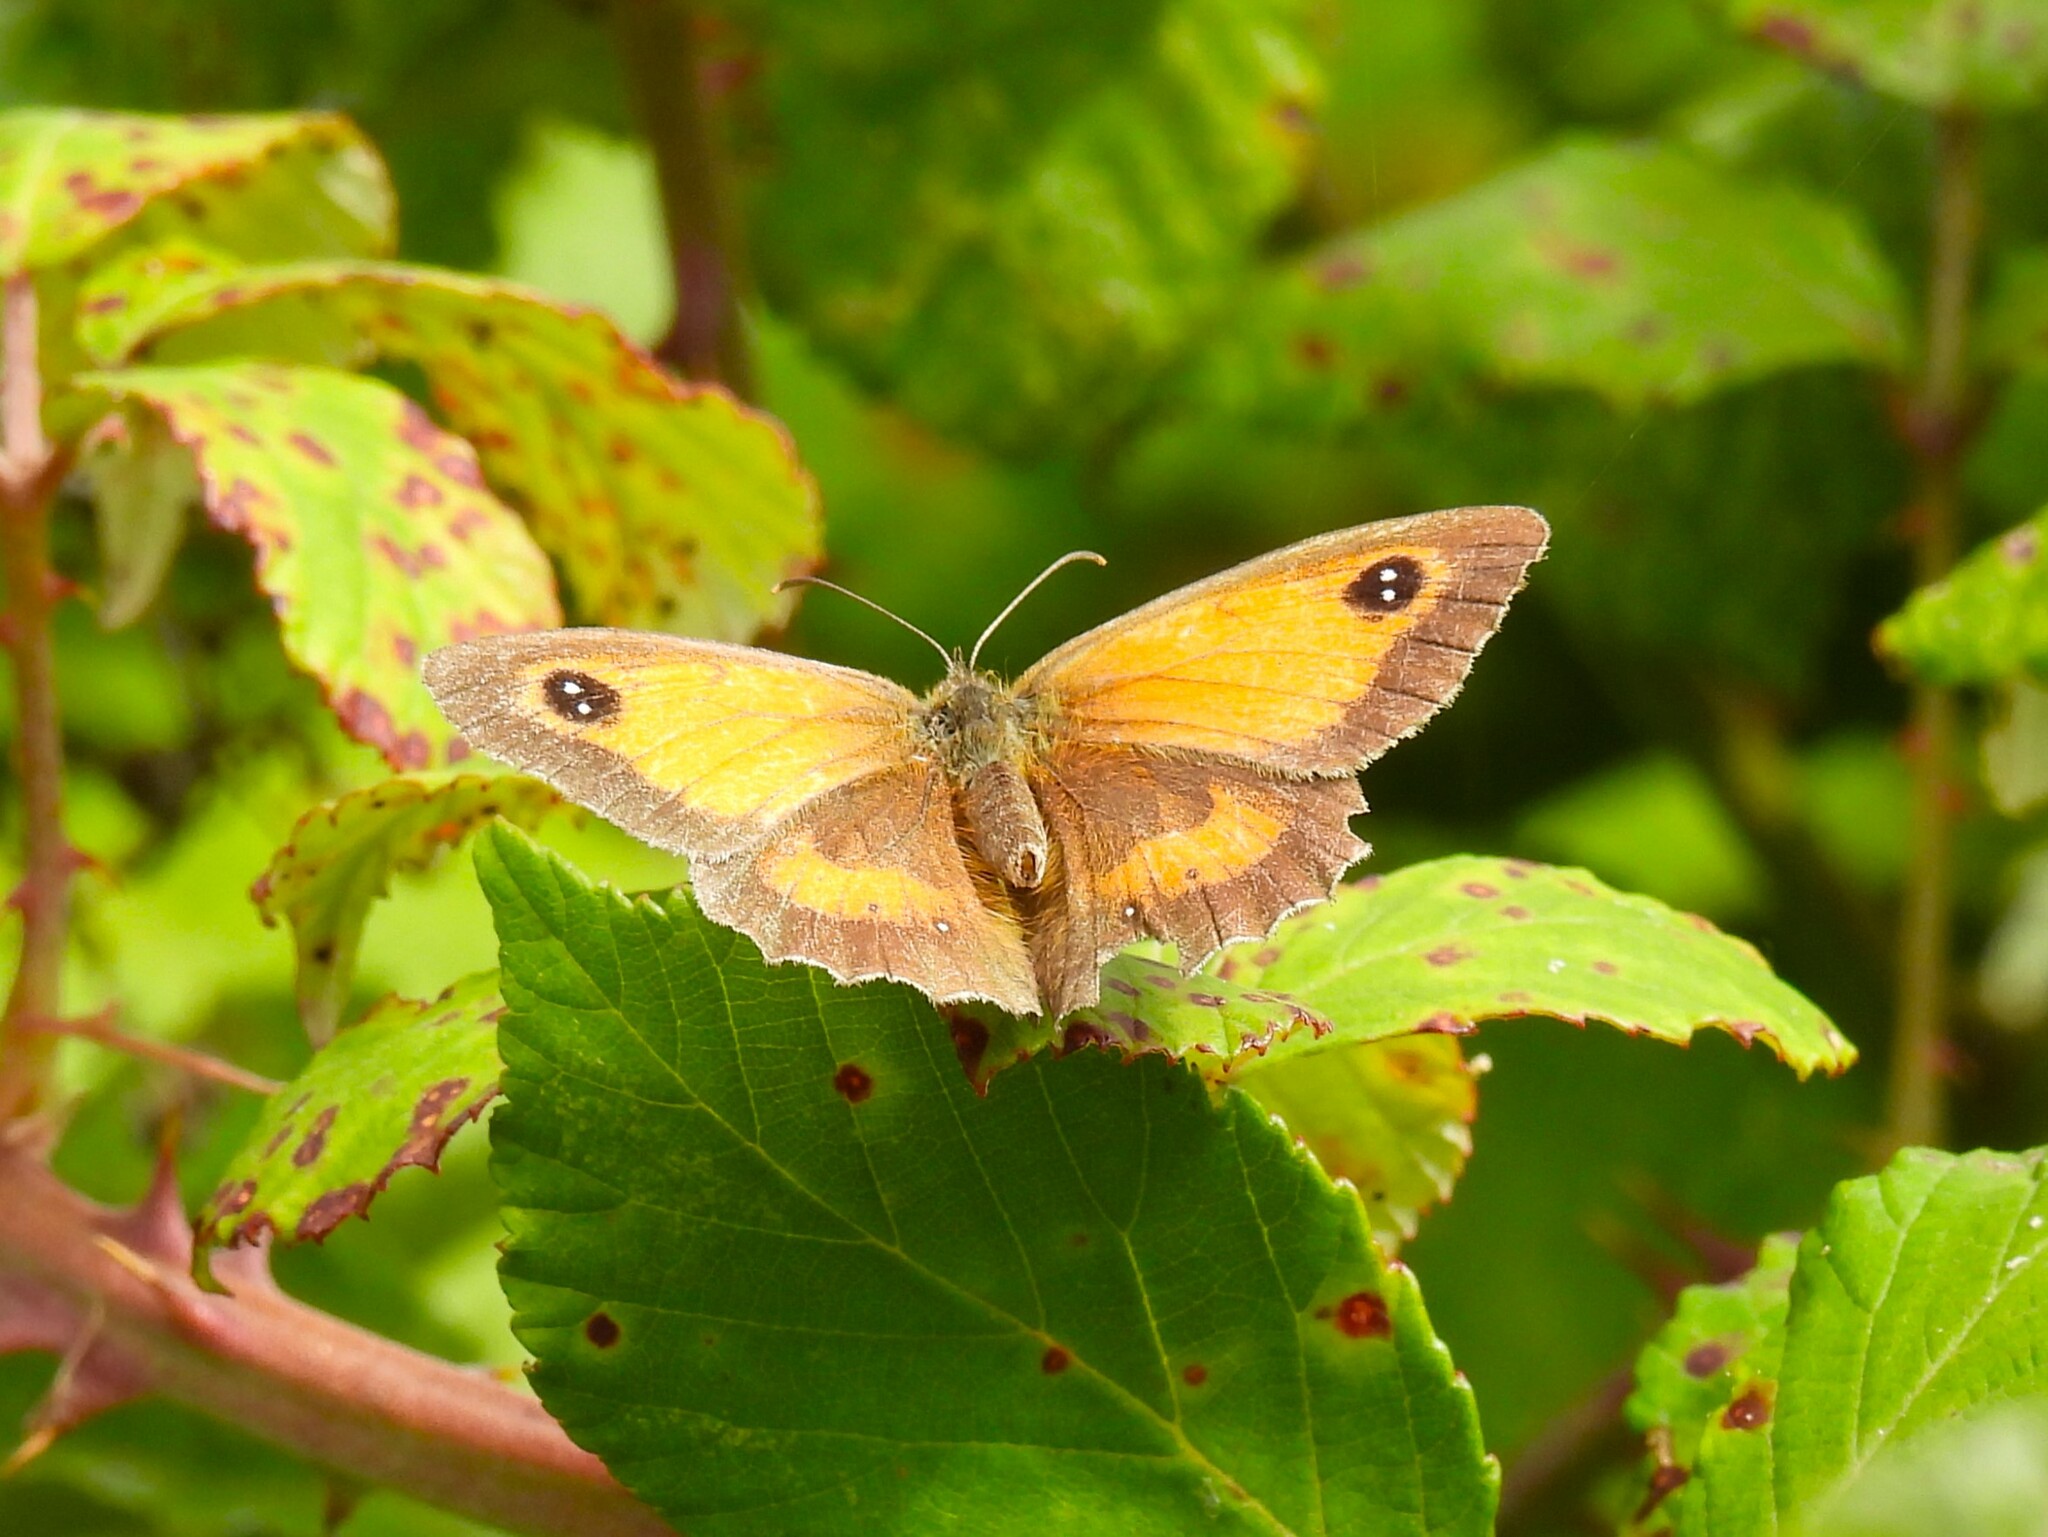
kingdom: Animalia
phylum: Arthropoda
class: Insecta
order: Lepidoptera
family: Nymphalidae
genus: Pyronia
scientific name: Pyronia tithonus
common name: Gatekeeper
